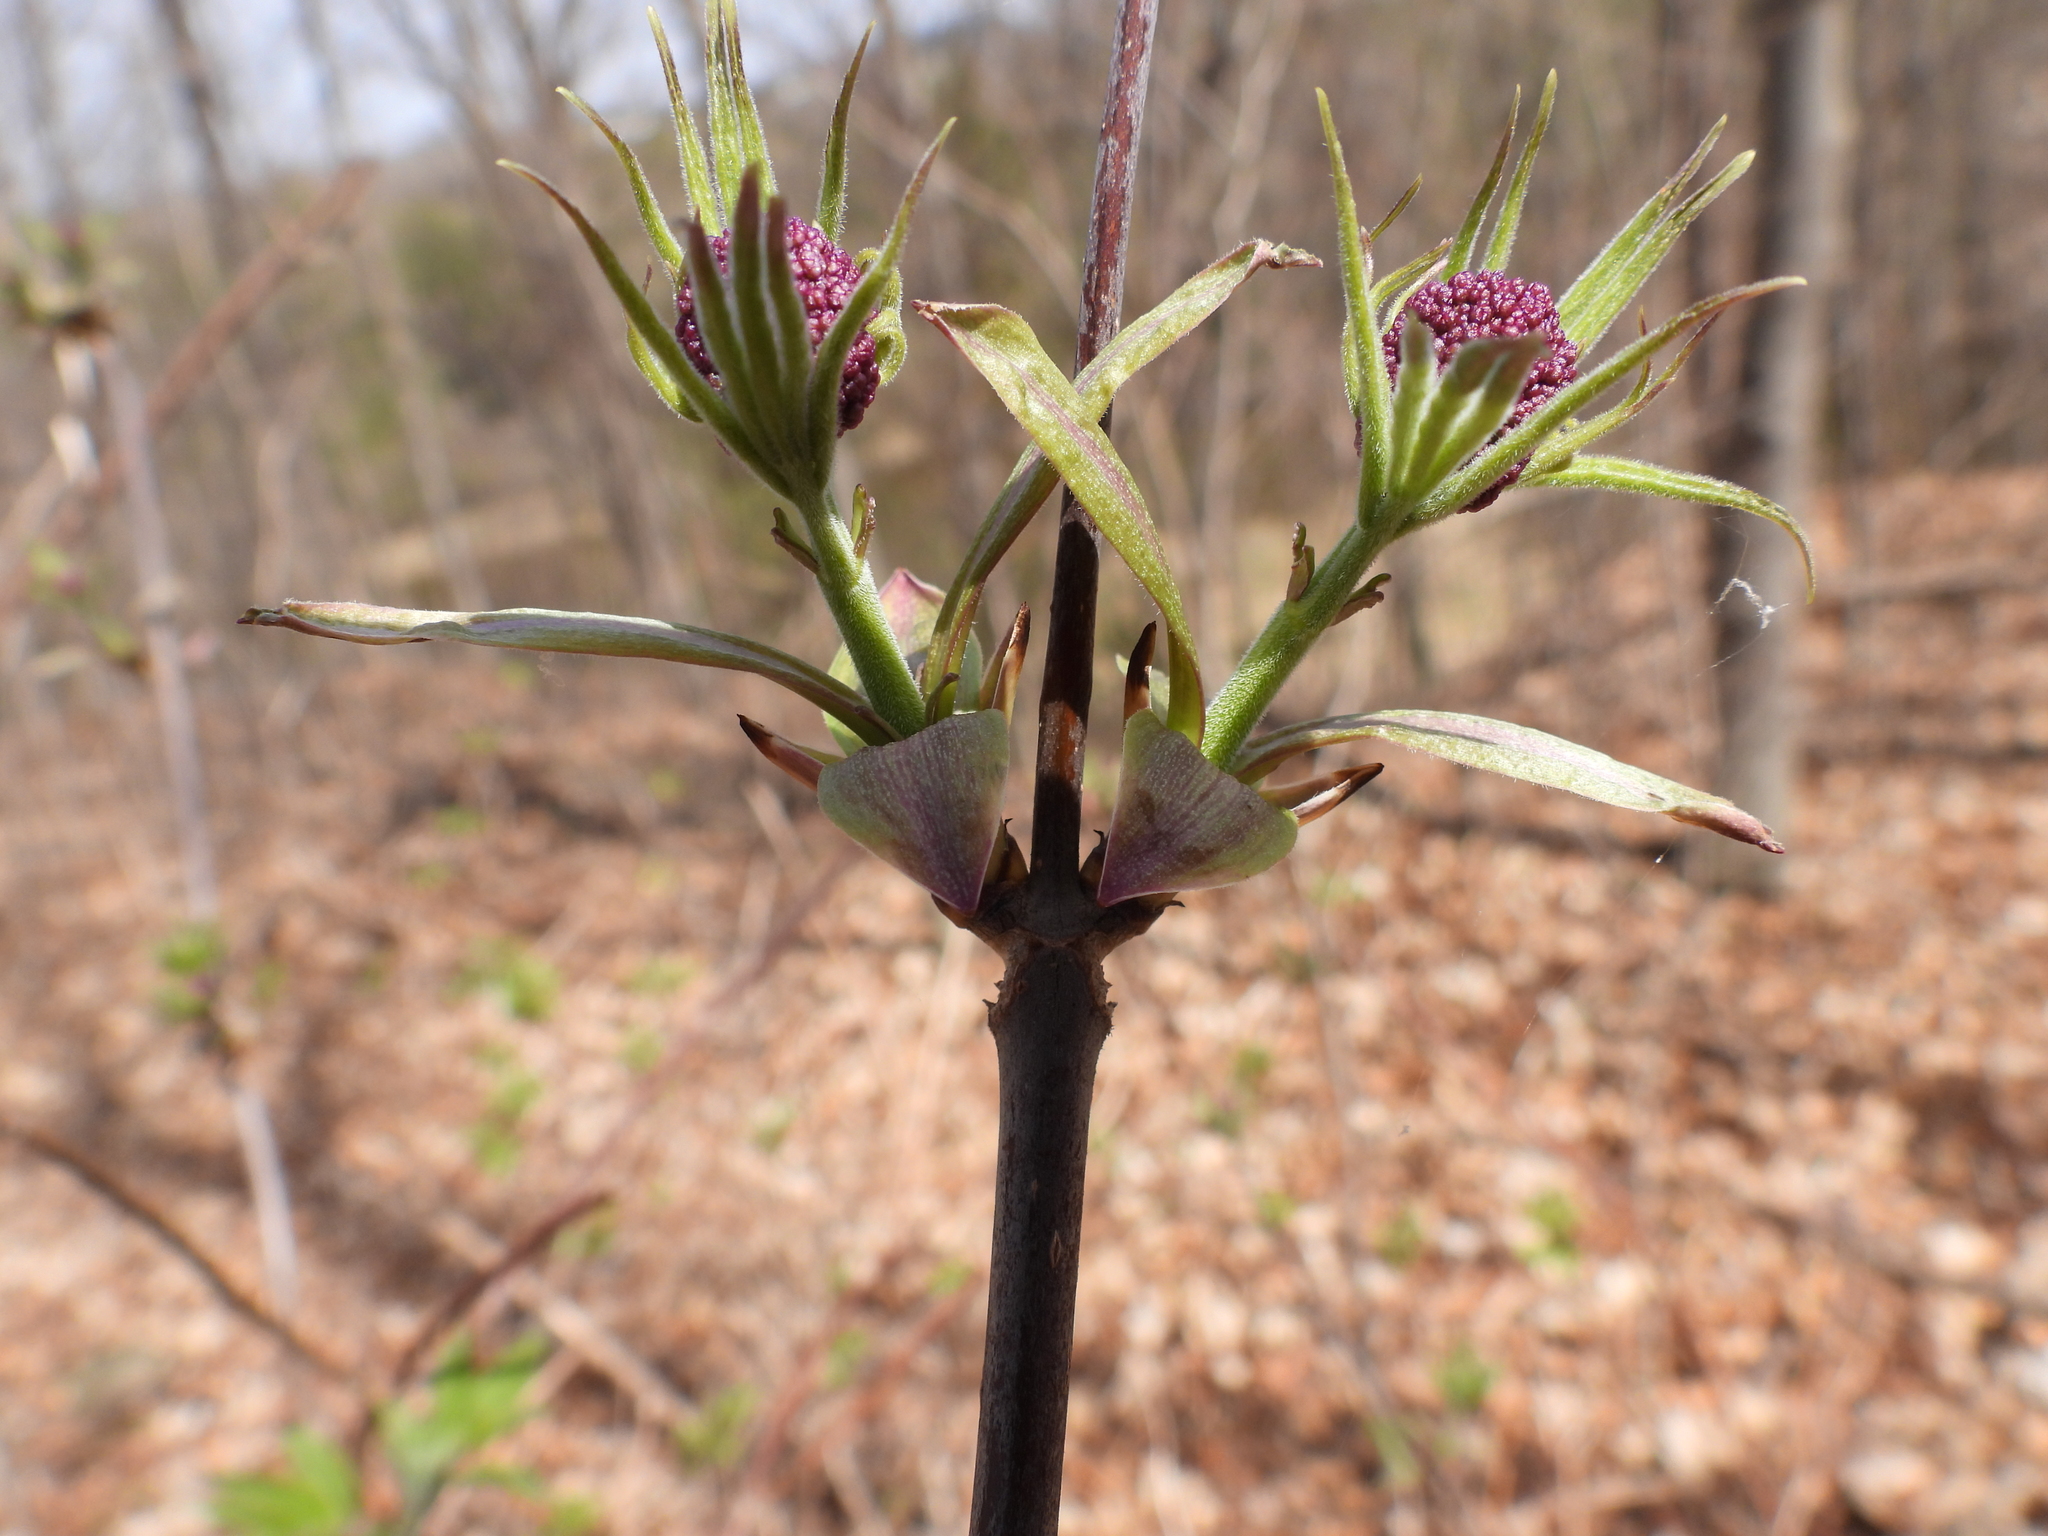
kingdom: Plantae
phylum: Tracheophyta
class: Magnoliopsida
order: Dipsacales
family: Viburnaceae
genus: Sambucus
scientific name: Sambucus racemosa
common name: Red-berried elder
